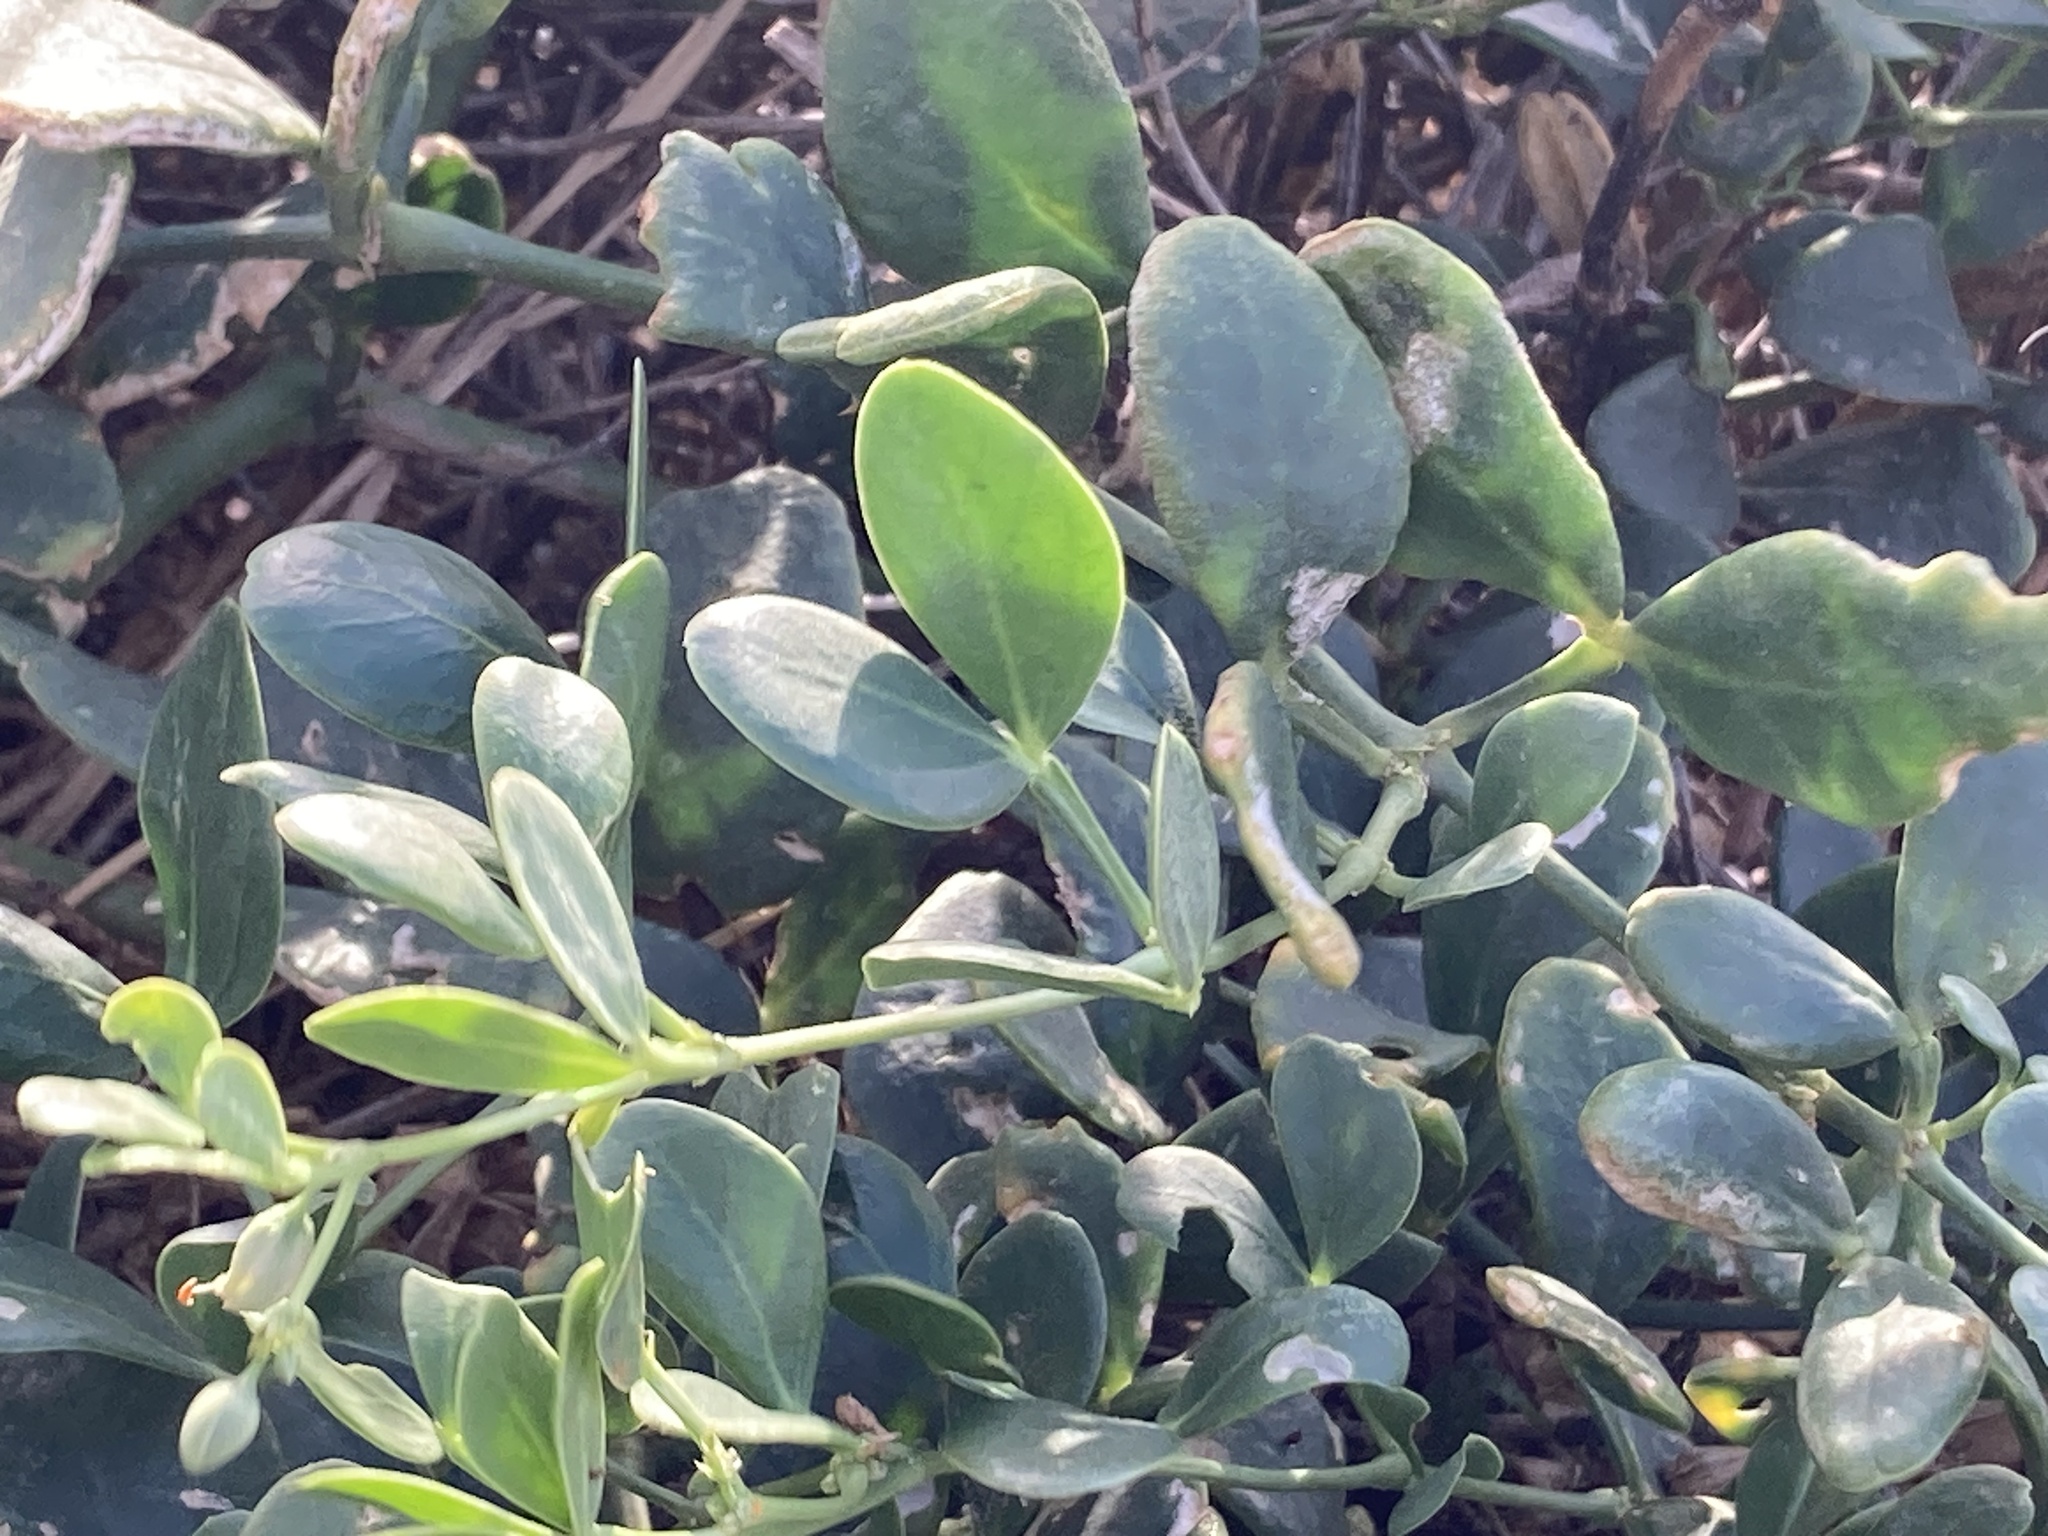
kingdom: Plantae
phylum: Tracheophyta
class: Magnoliopsida
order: Zygophyllales
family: Zygophyllaceae
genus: Zygophyllum
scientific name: Zygophyllum fabago
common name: Syrian beancaper
